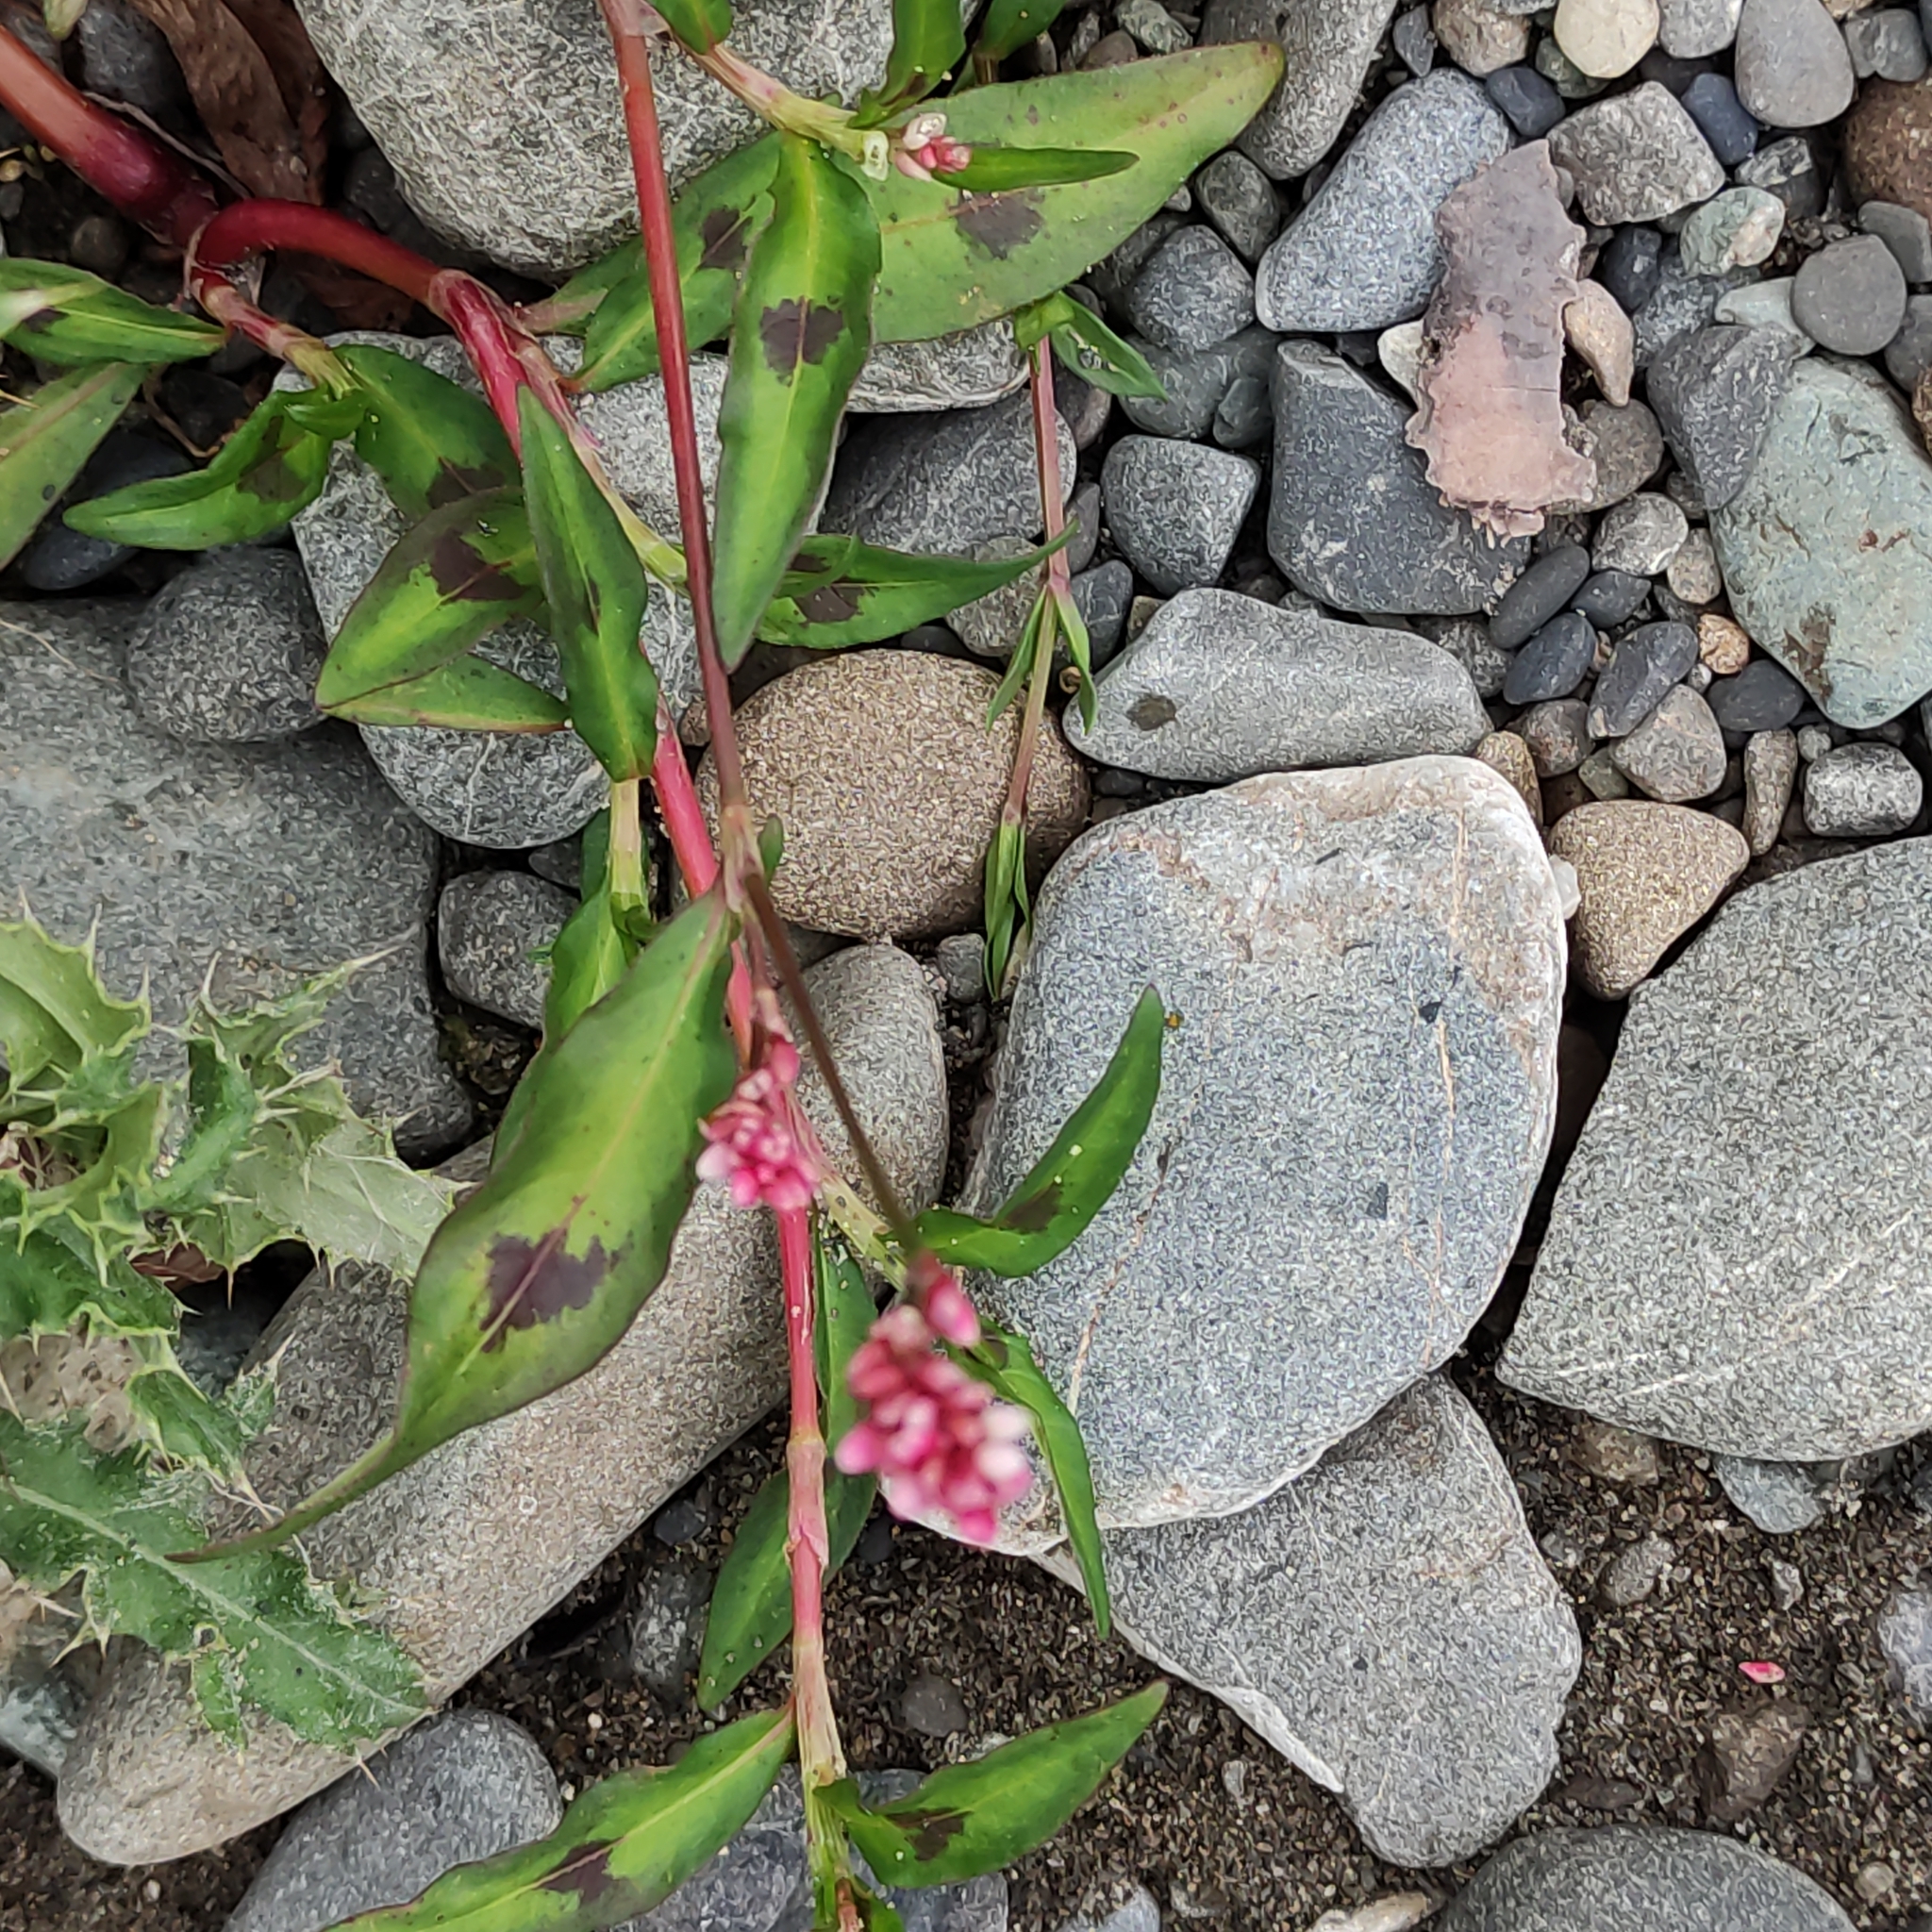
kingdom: Plantae
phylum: Tracheophyta
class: Magnoliopsida
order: Caryophyllales
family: Polygonaceae
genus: Persicaria
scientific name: Persicaria maculosa
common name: Redshank
